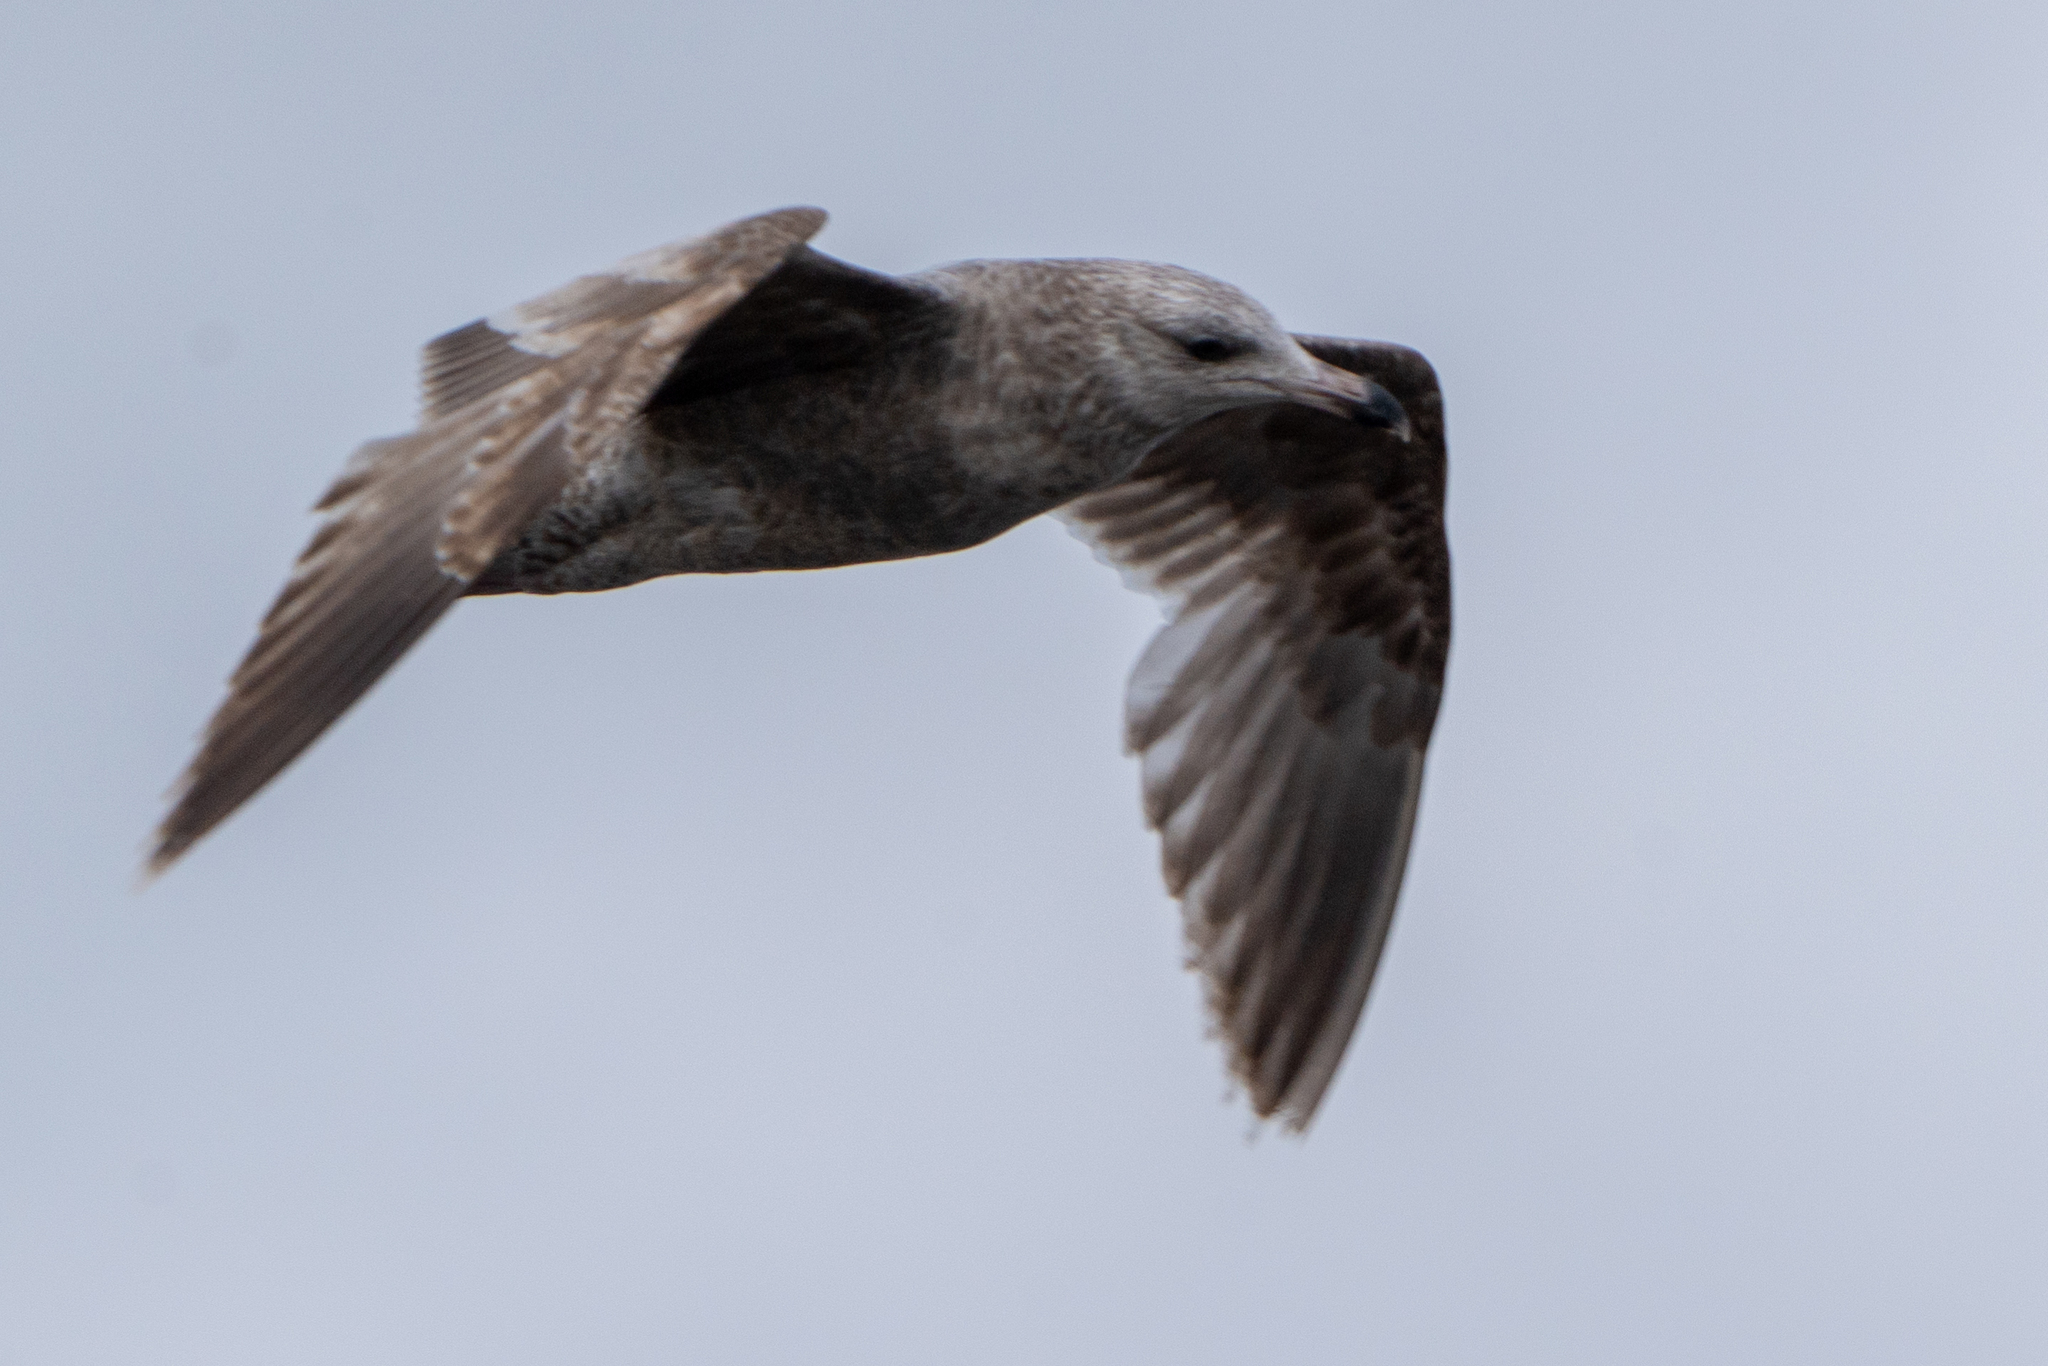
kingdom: Animalia
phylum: Chordata
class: Aves
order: Charadriiformes
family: Laridae
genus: Larus
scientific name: Larus argentatus
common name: Herring gull
